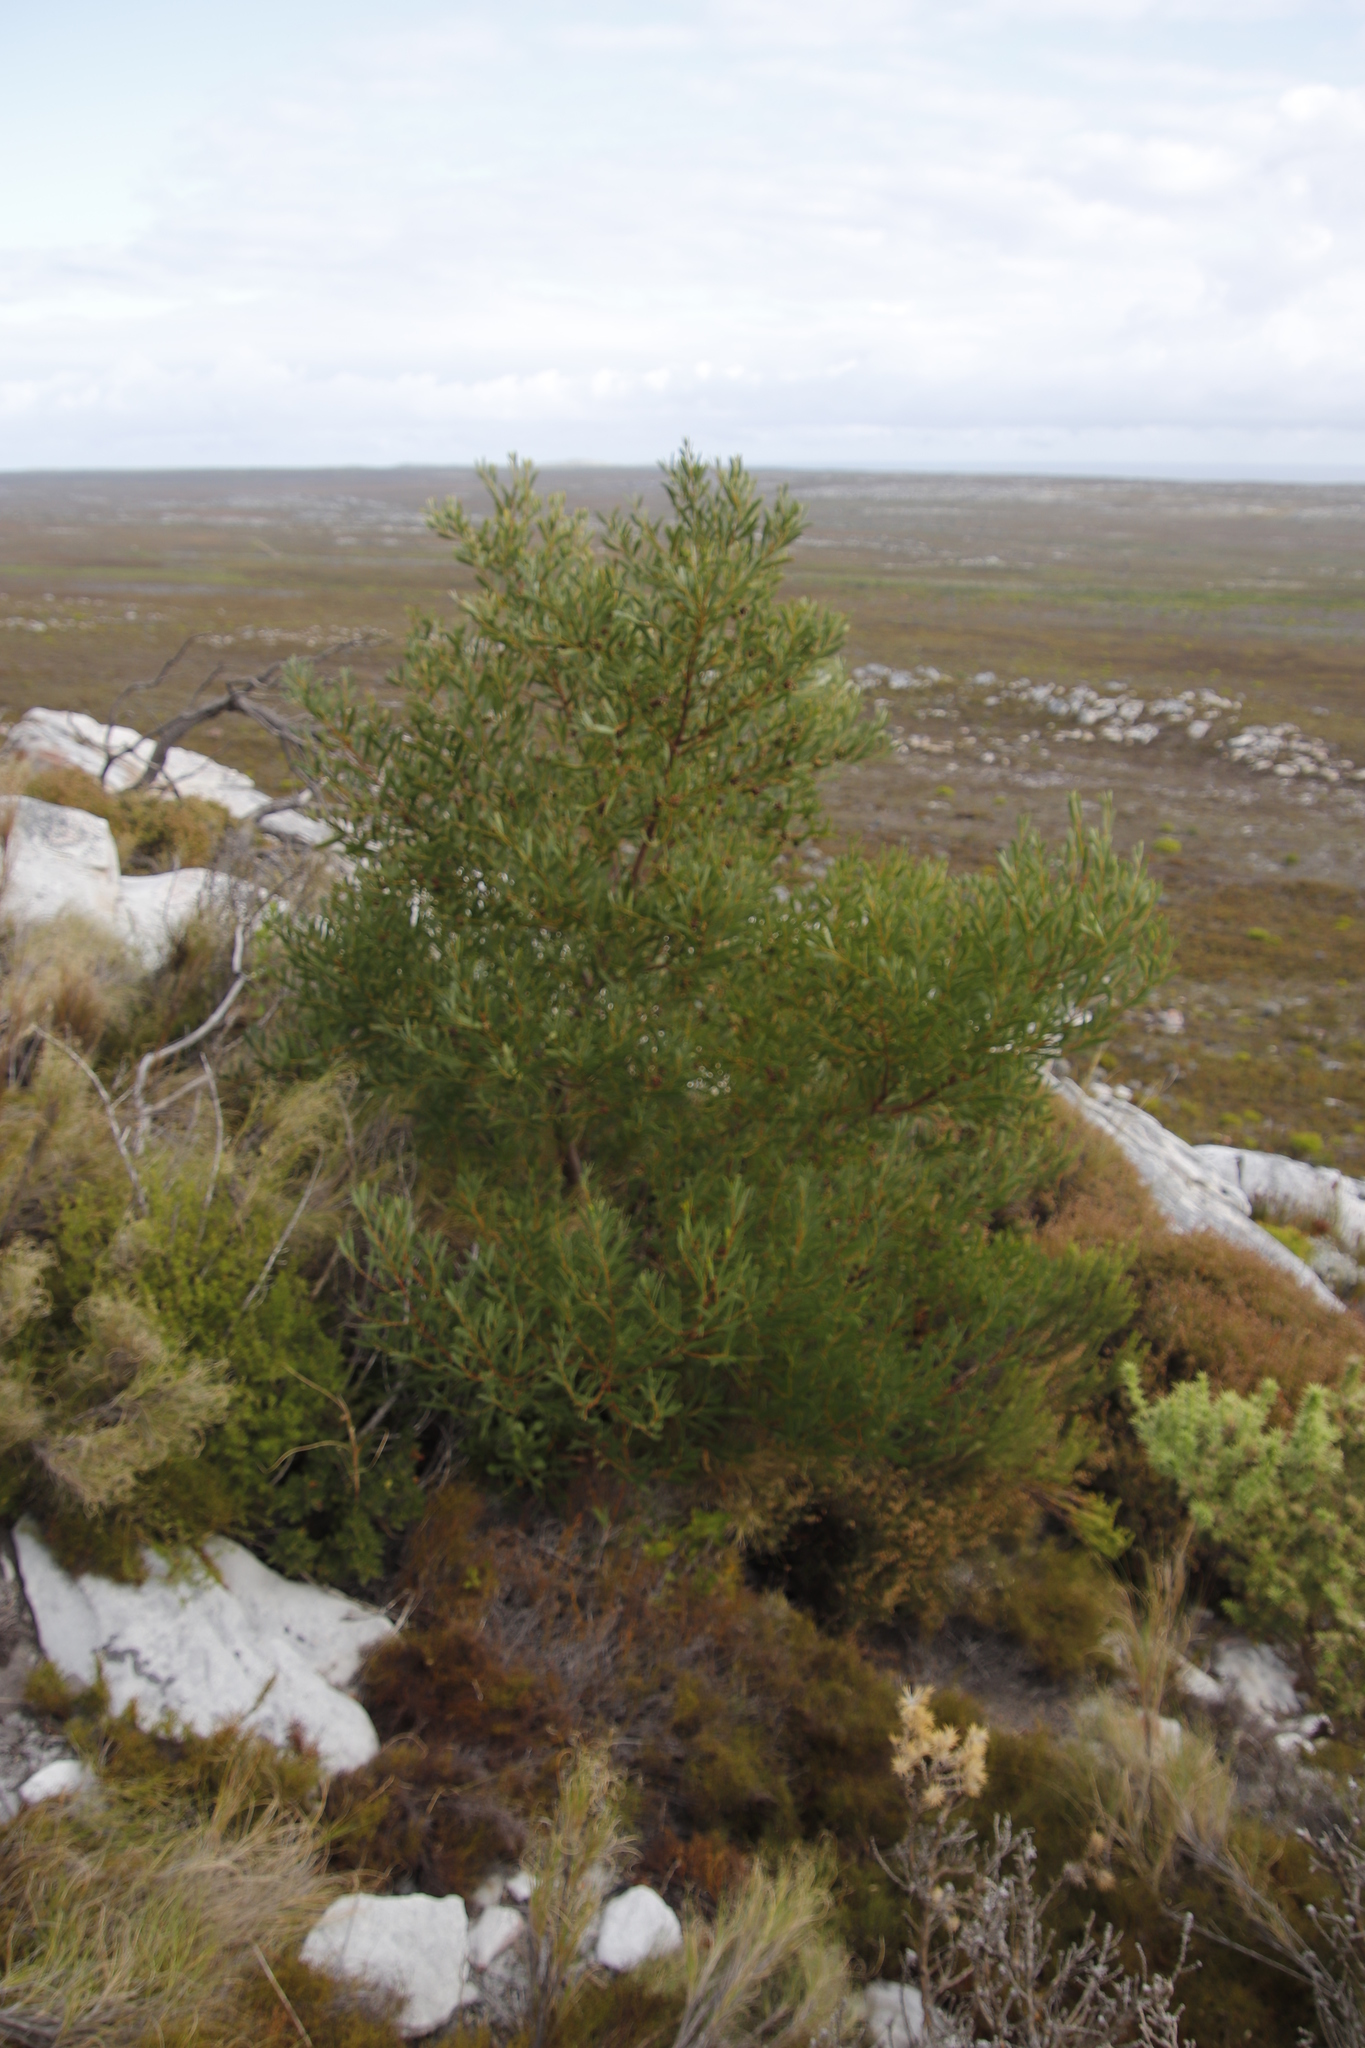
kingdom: Plantae
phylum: Tracheophyta
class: Magnoliopsida
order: Fabales
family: Fabaceae
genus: Acacia
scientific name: Acacia cyclops
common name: Coastal wattle
